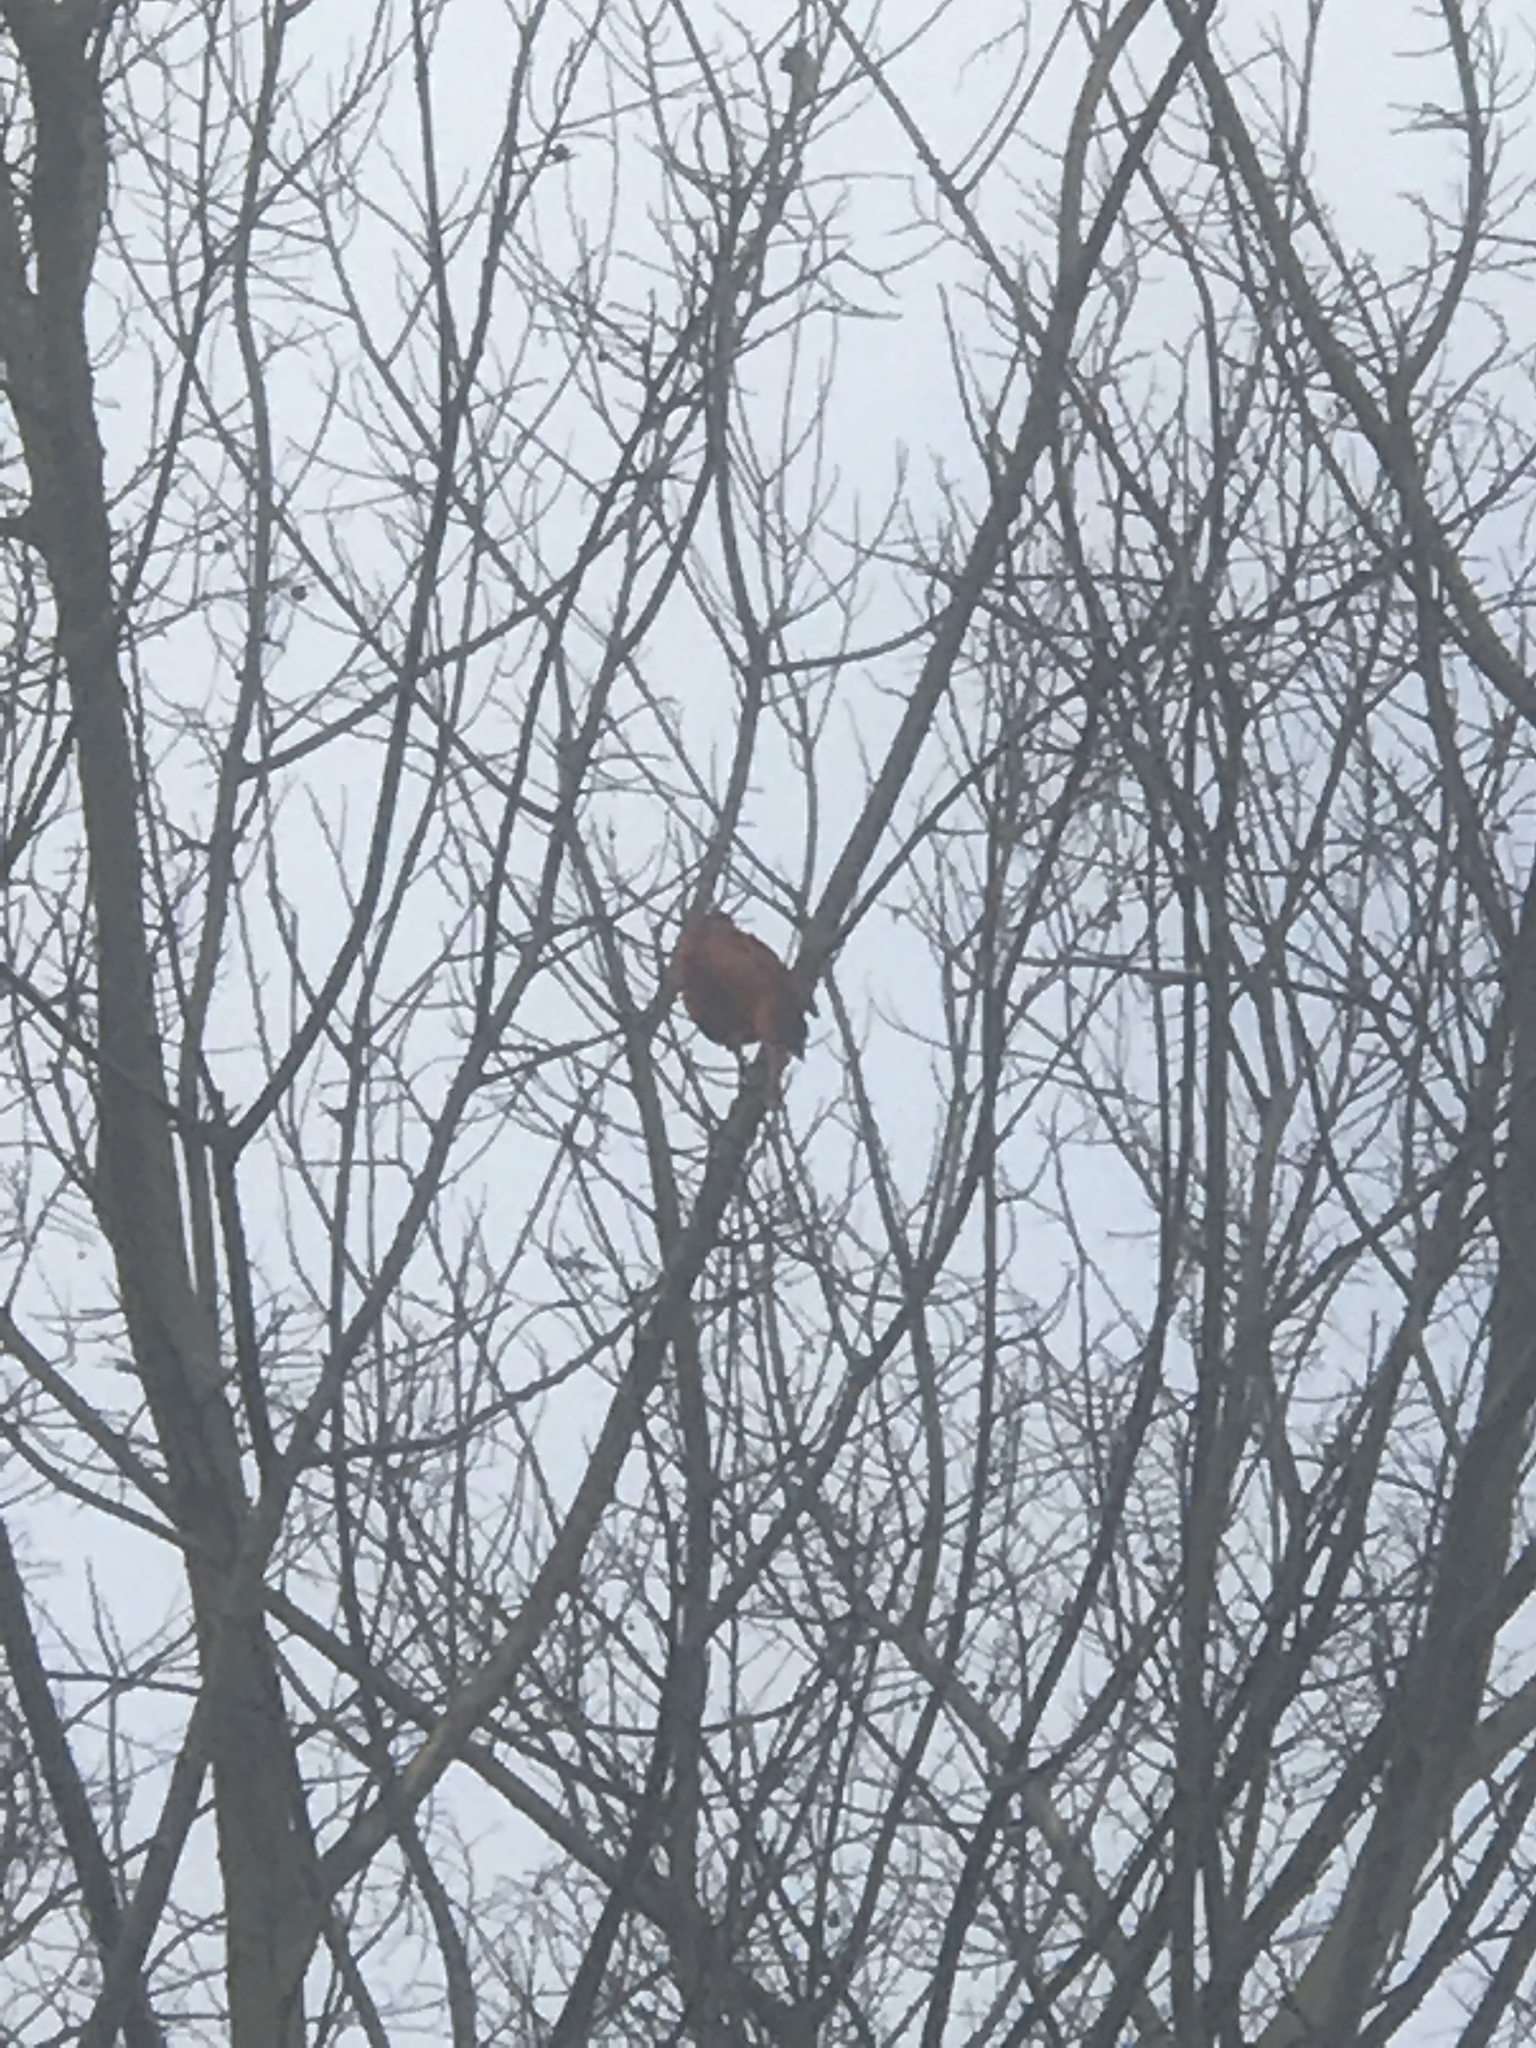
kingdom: Animalia
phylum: Chordata
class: Aves
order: Passeriformes
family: Cardinalidae
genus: Cardinalis
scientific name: Cardinalis cardinalis
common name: Northern cardinal
